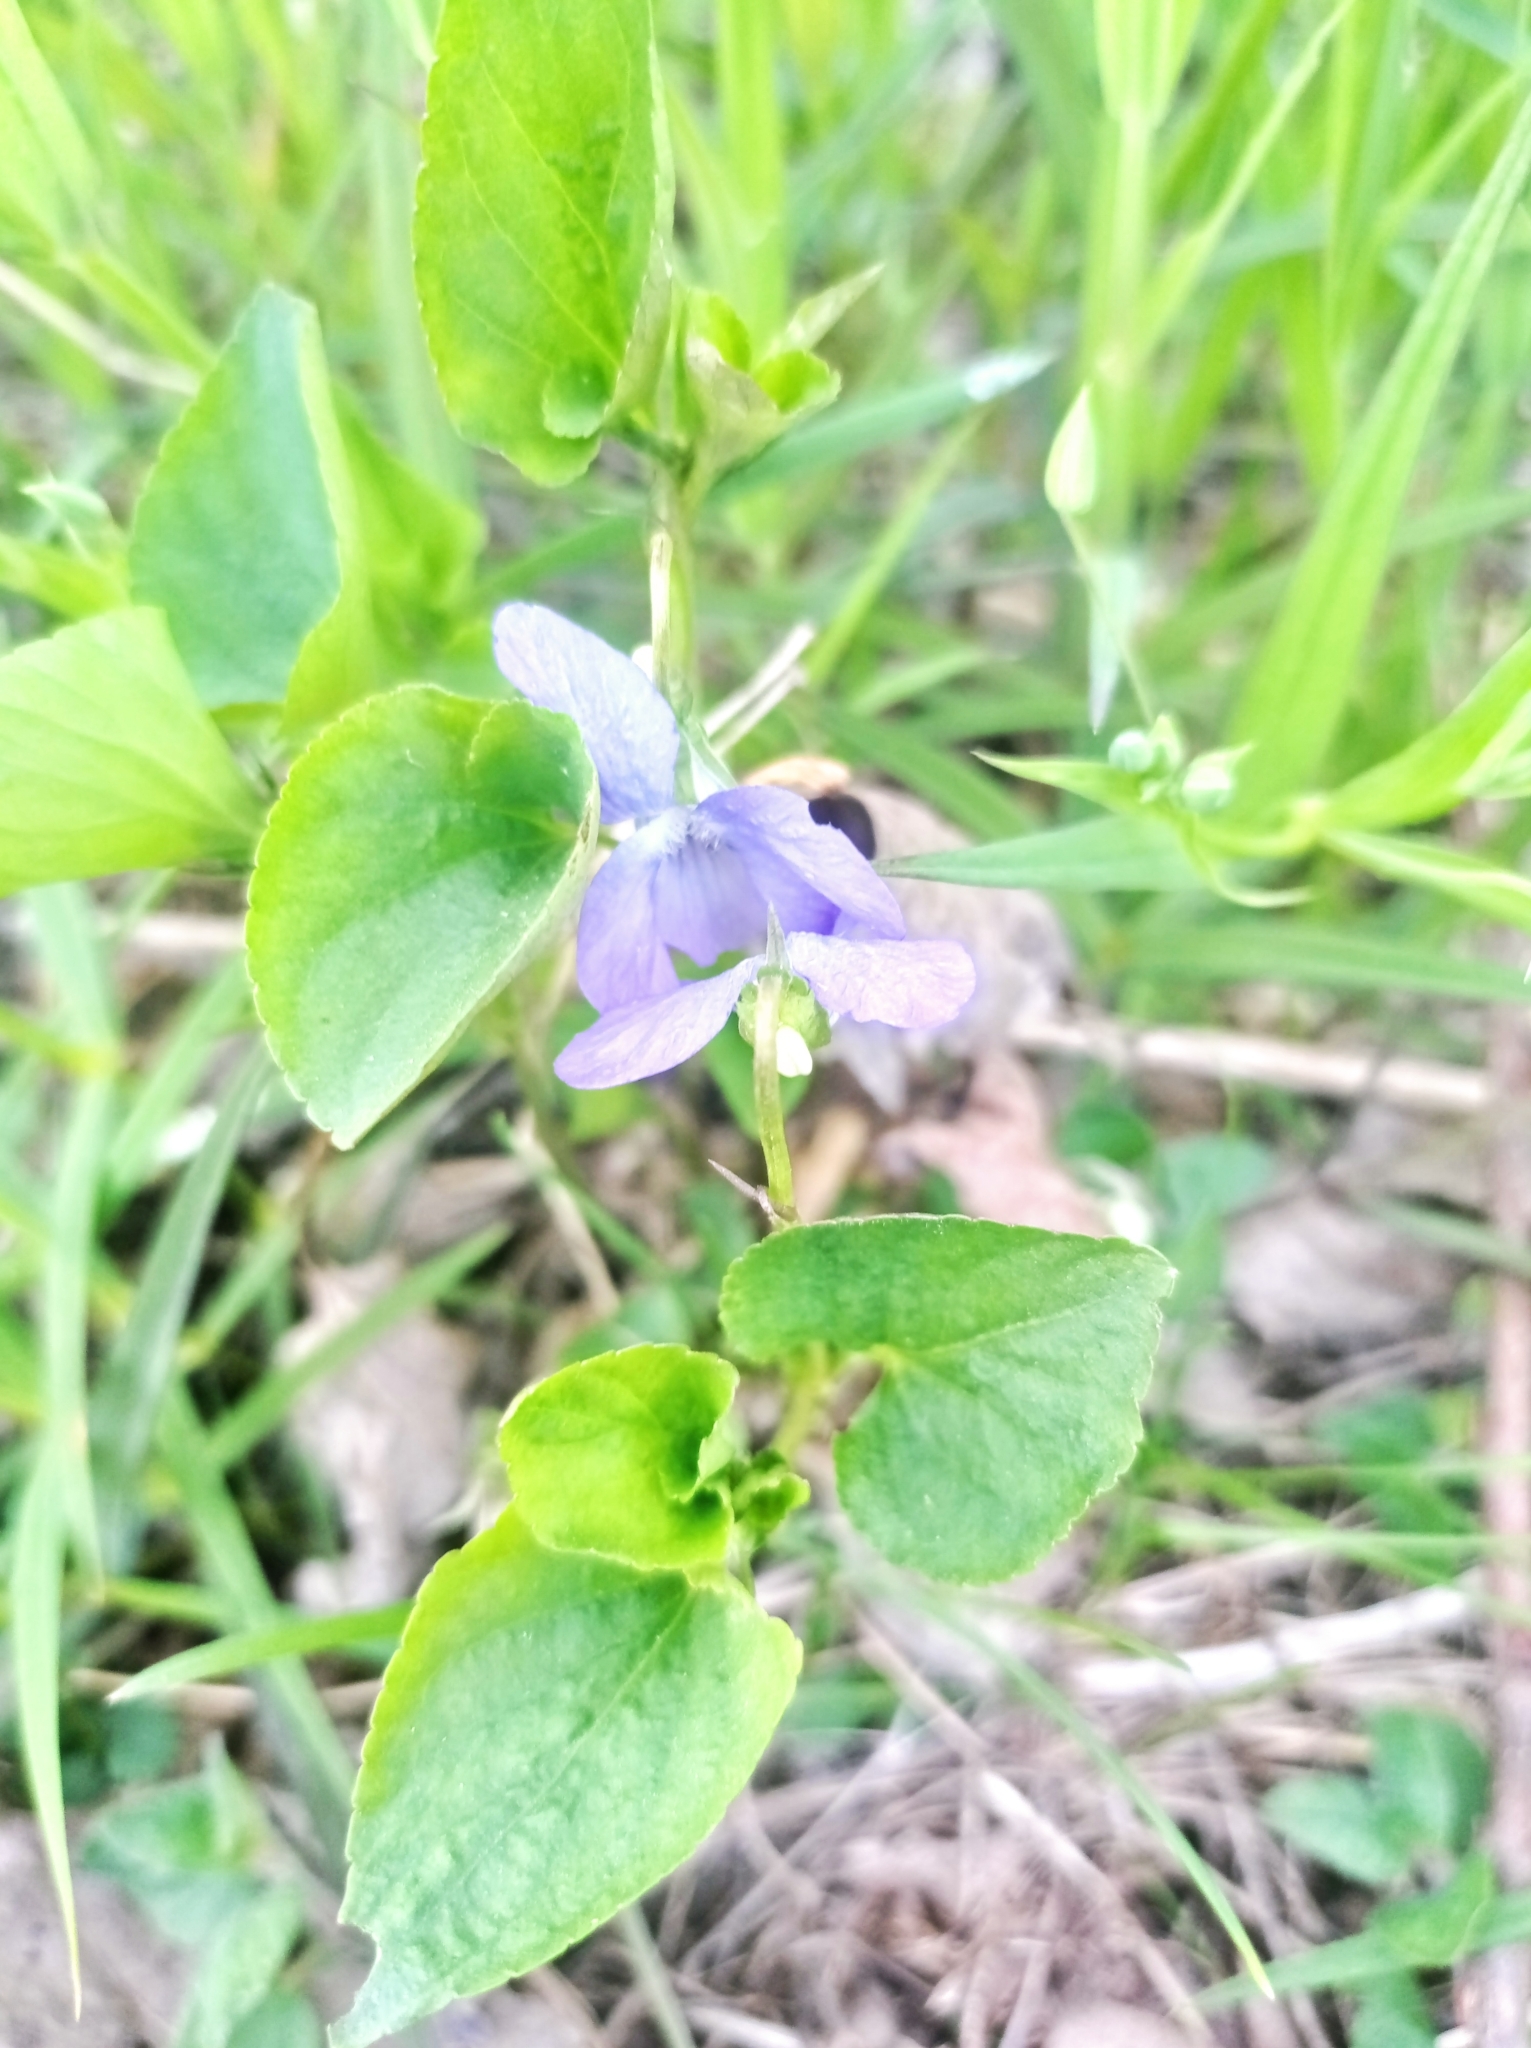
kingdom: Plantae
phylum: Tracheophyta
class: Magnoliopsida
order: Malpighiales
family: Violaceae
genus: Viola
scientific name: Viola riviniana
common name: Common dog-violet
